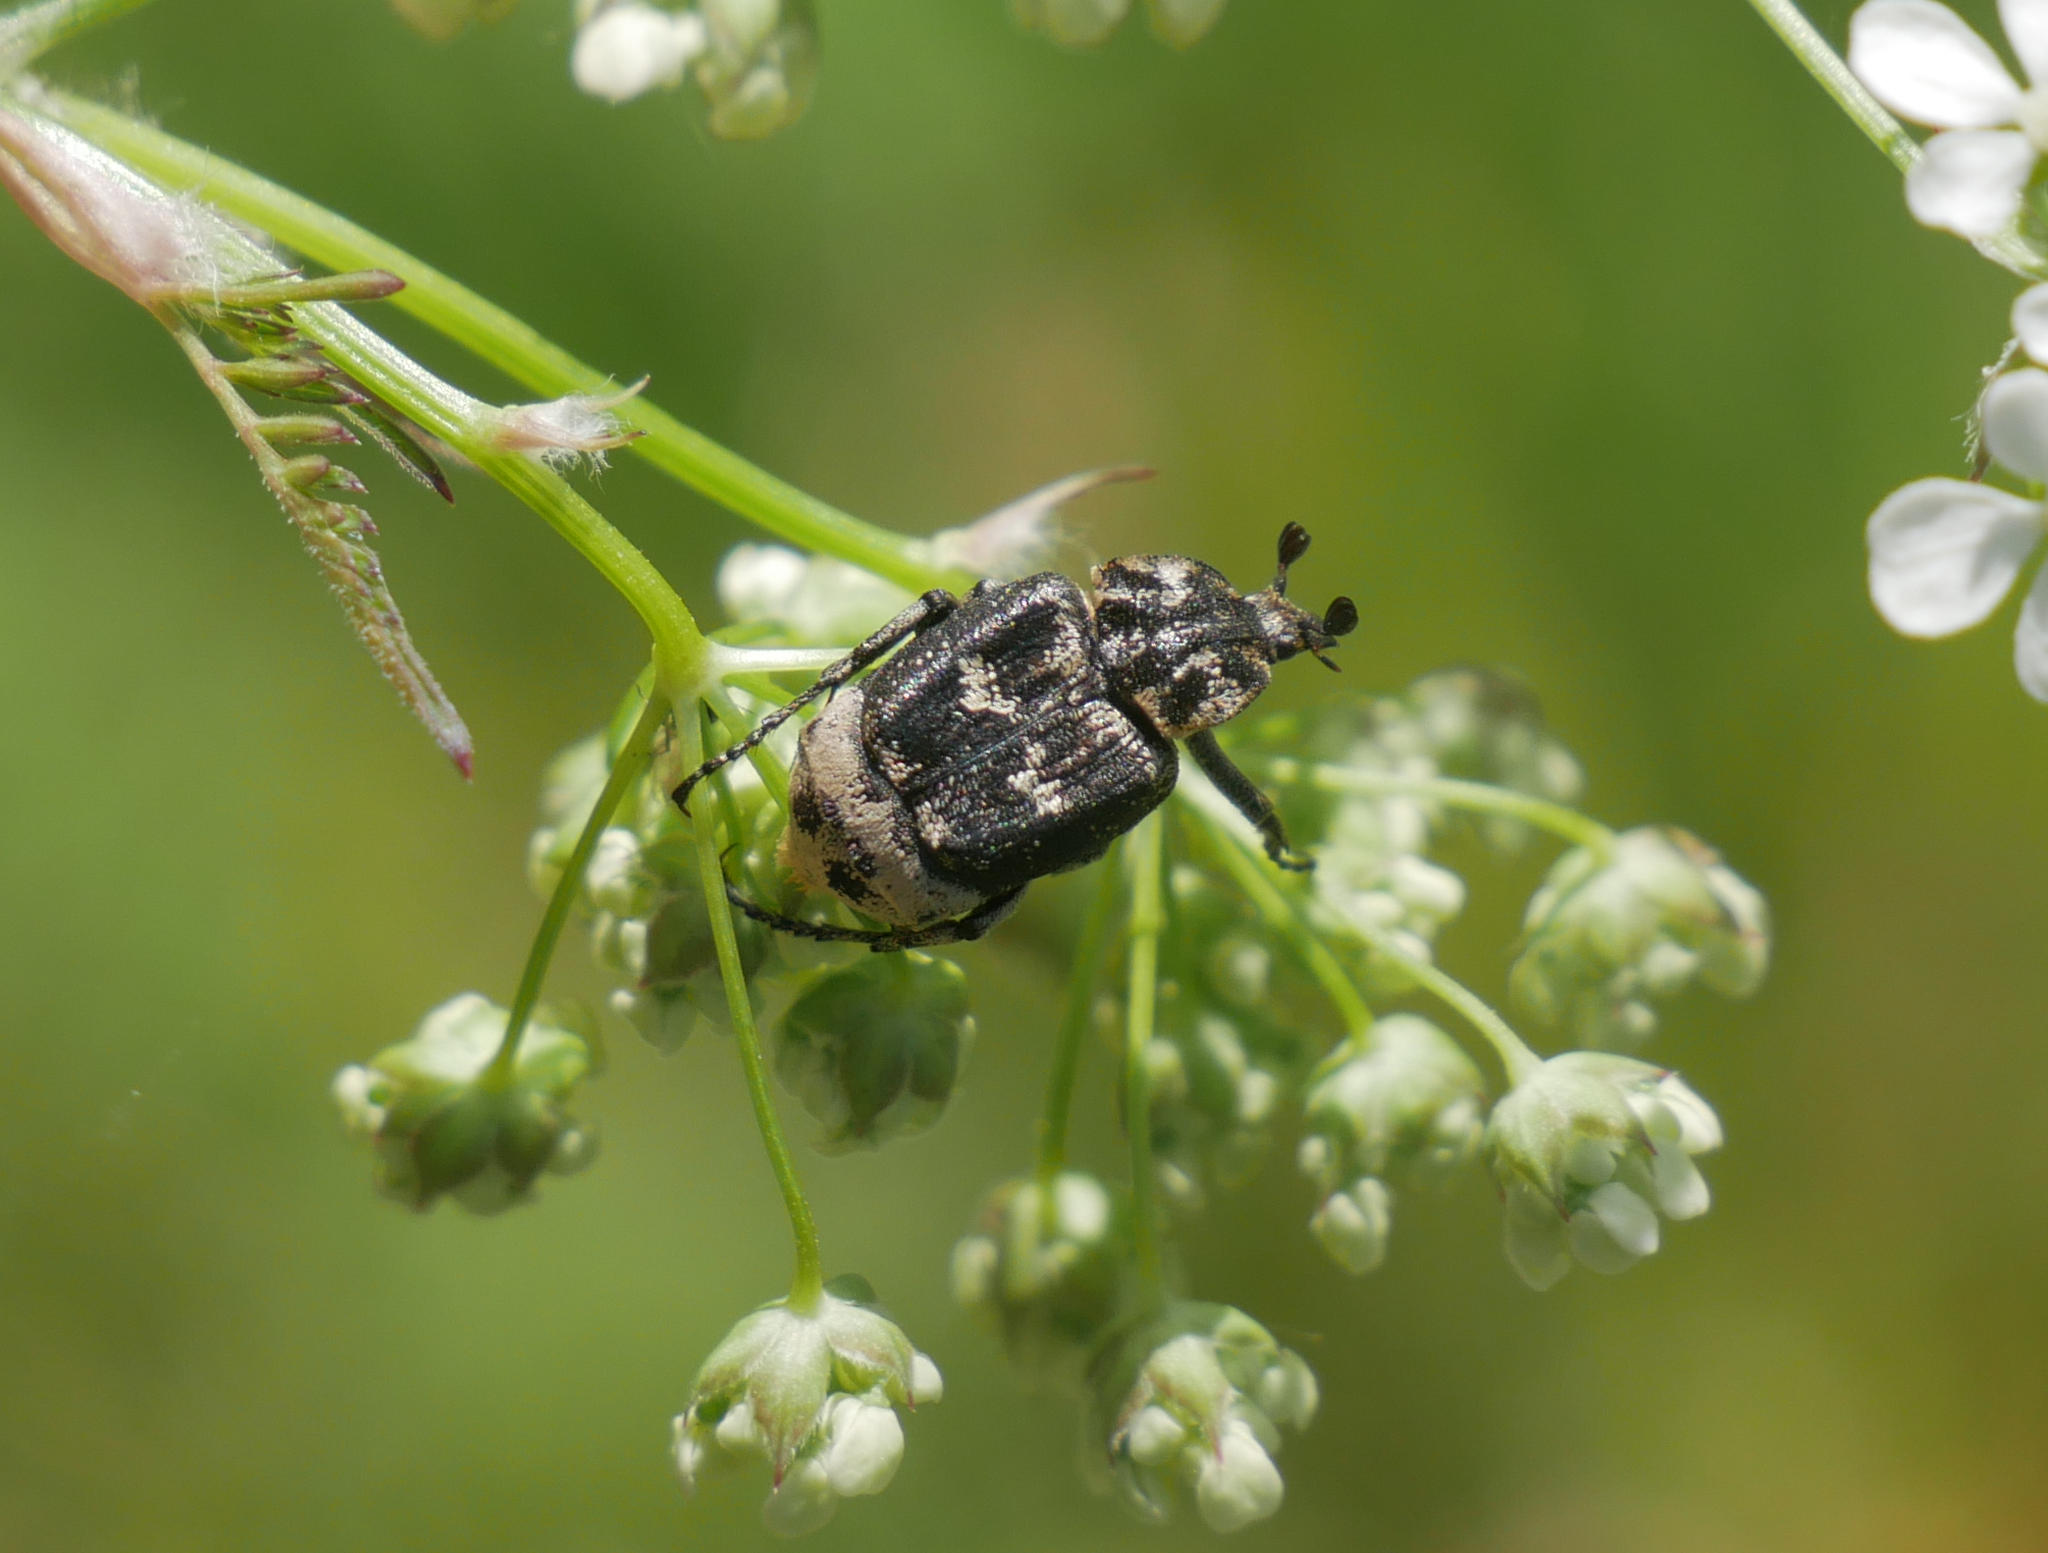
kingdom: Animalia
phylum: Arthropoda
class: Insecta
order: Coleoptera
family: Scarabaeidae
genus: Valgus
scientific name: Valgus hemipterus
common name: Bug flower chafer
